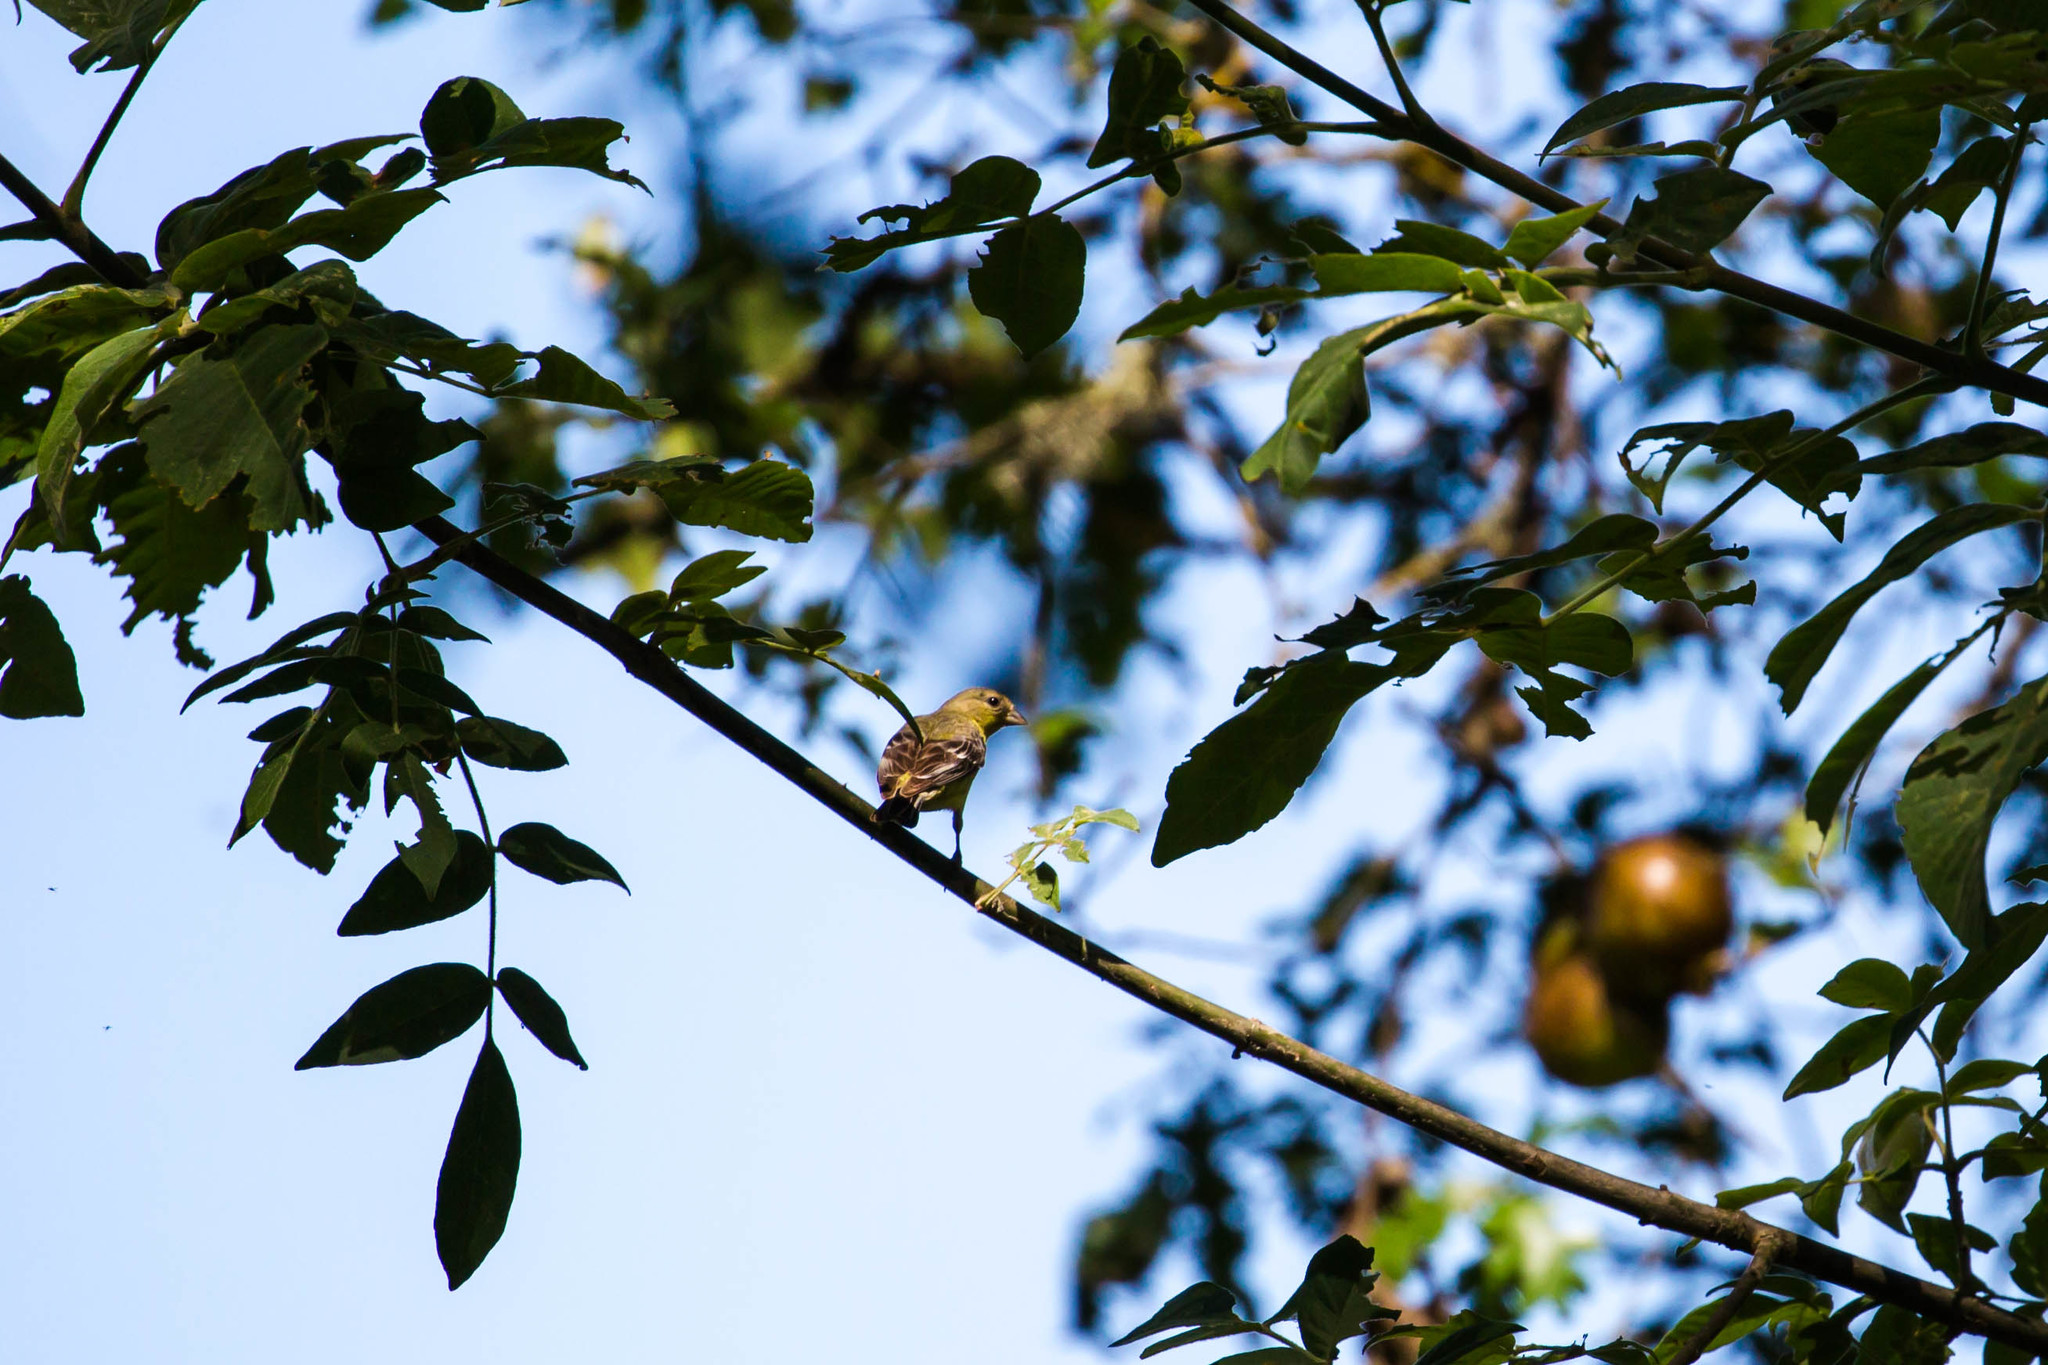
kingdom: Animalia
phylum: Chordata
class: Aves
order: Passeriformes
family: Fringillidae
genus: Spinus
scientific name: Spinus psaltria
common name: Lesser goldfinch
